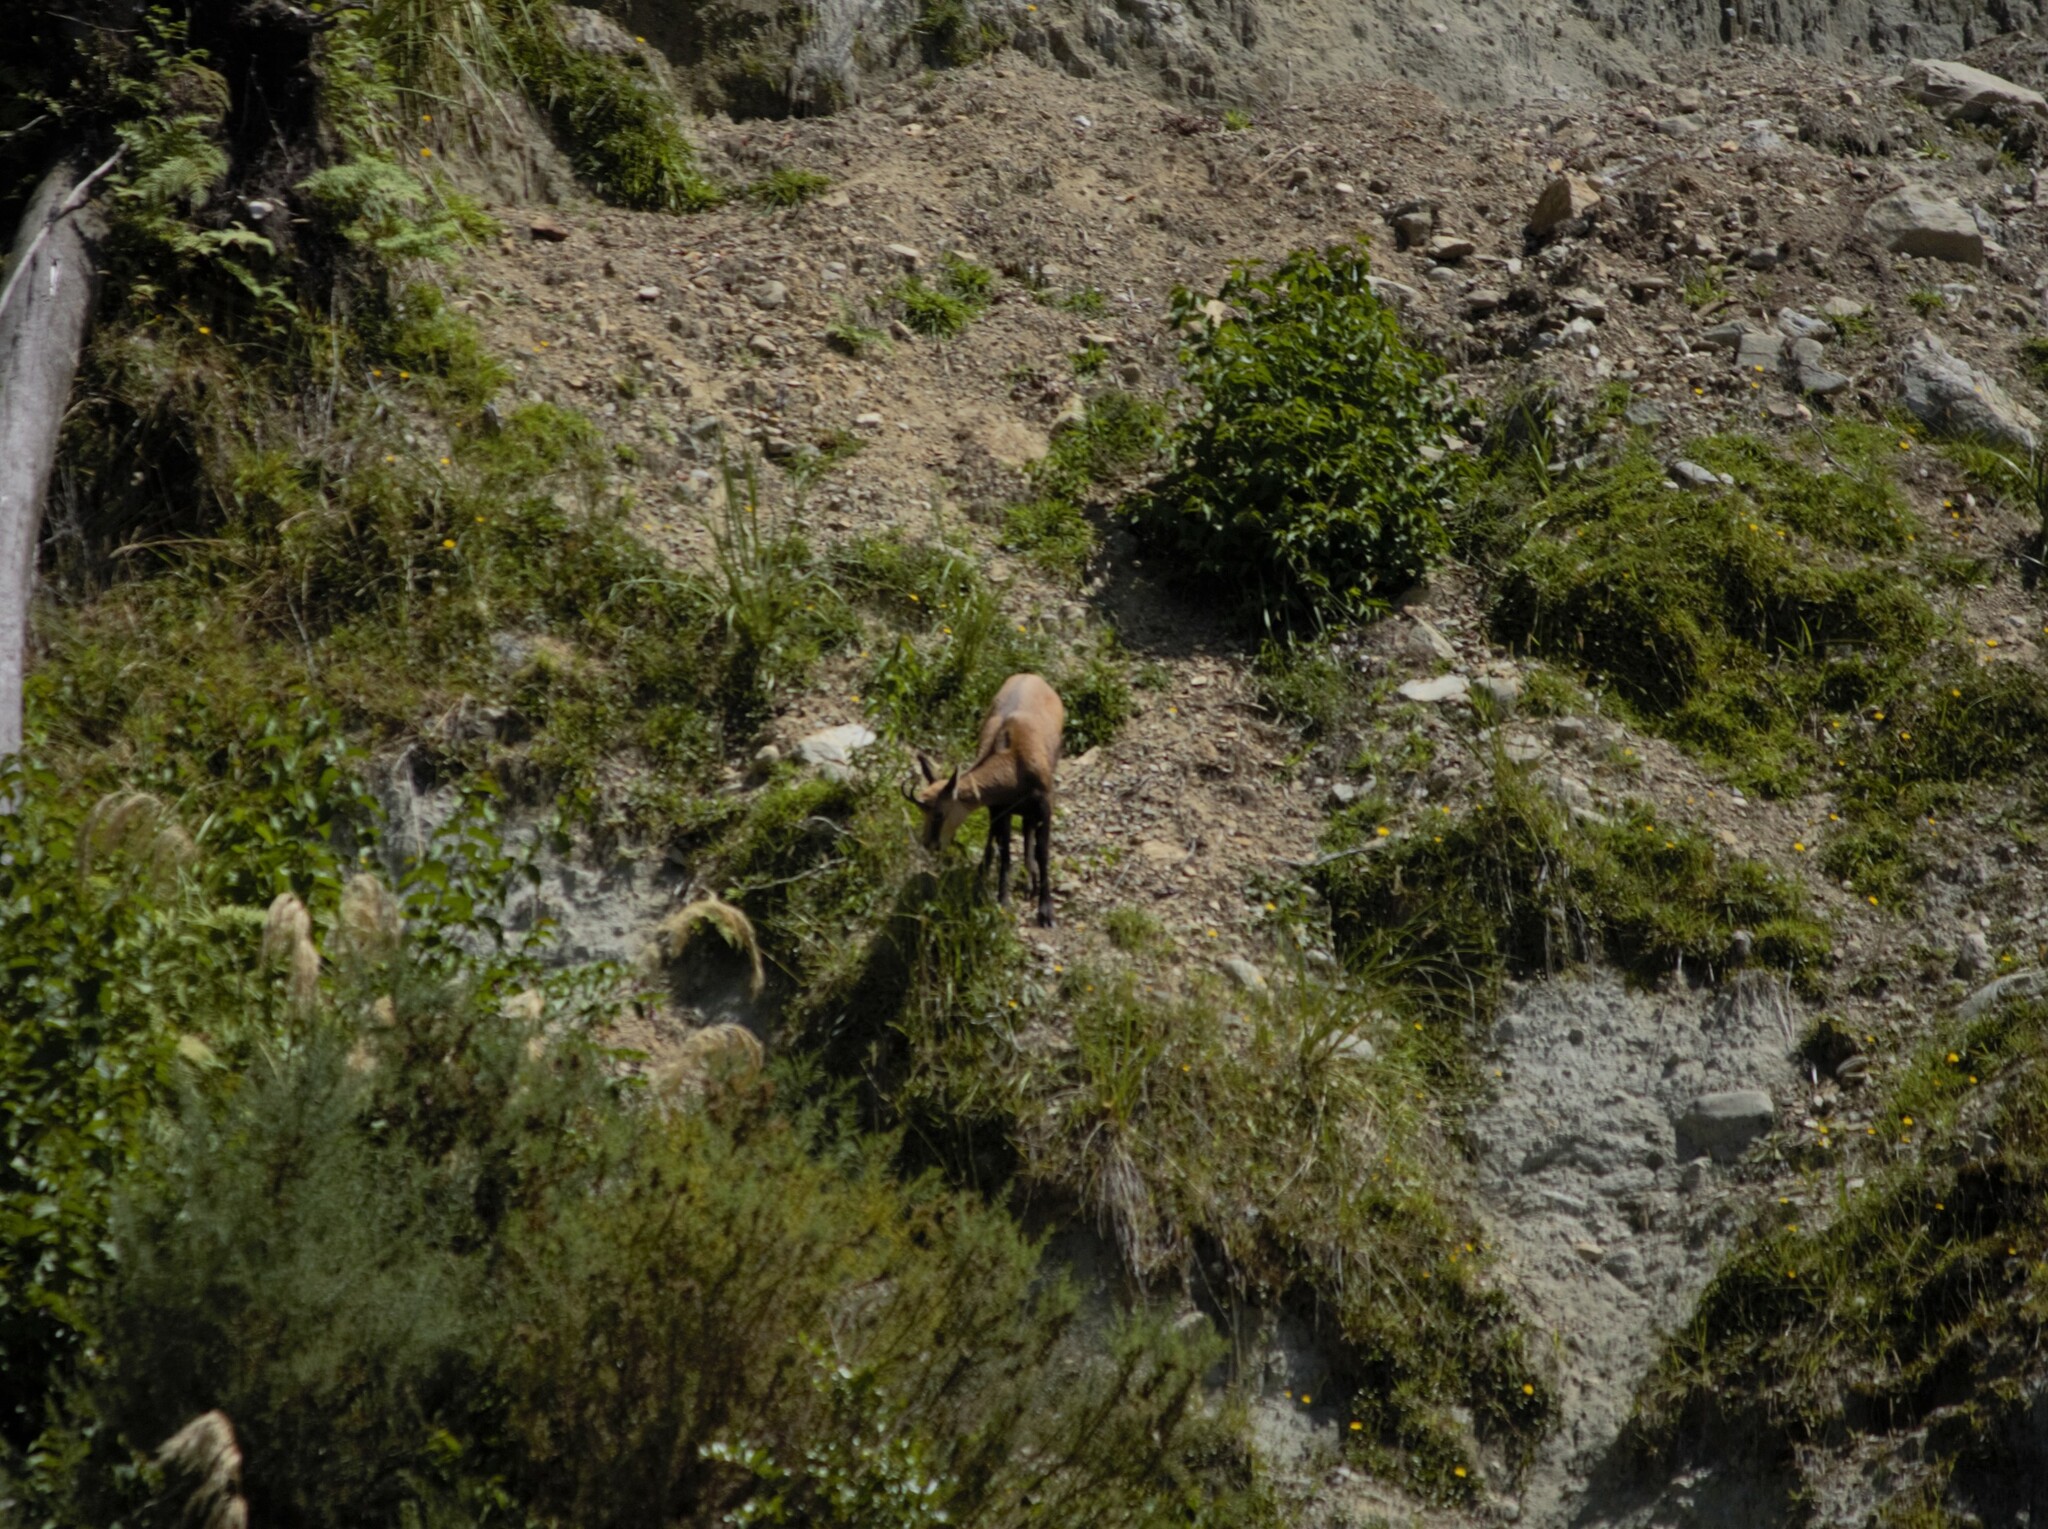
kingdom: Animalia
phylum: Chordata
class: Mammalia
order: Artiodactyla
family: Bovidae
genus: Rupicapra
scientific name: Rupicapra rupicapra
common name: Chamois
